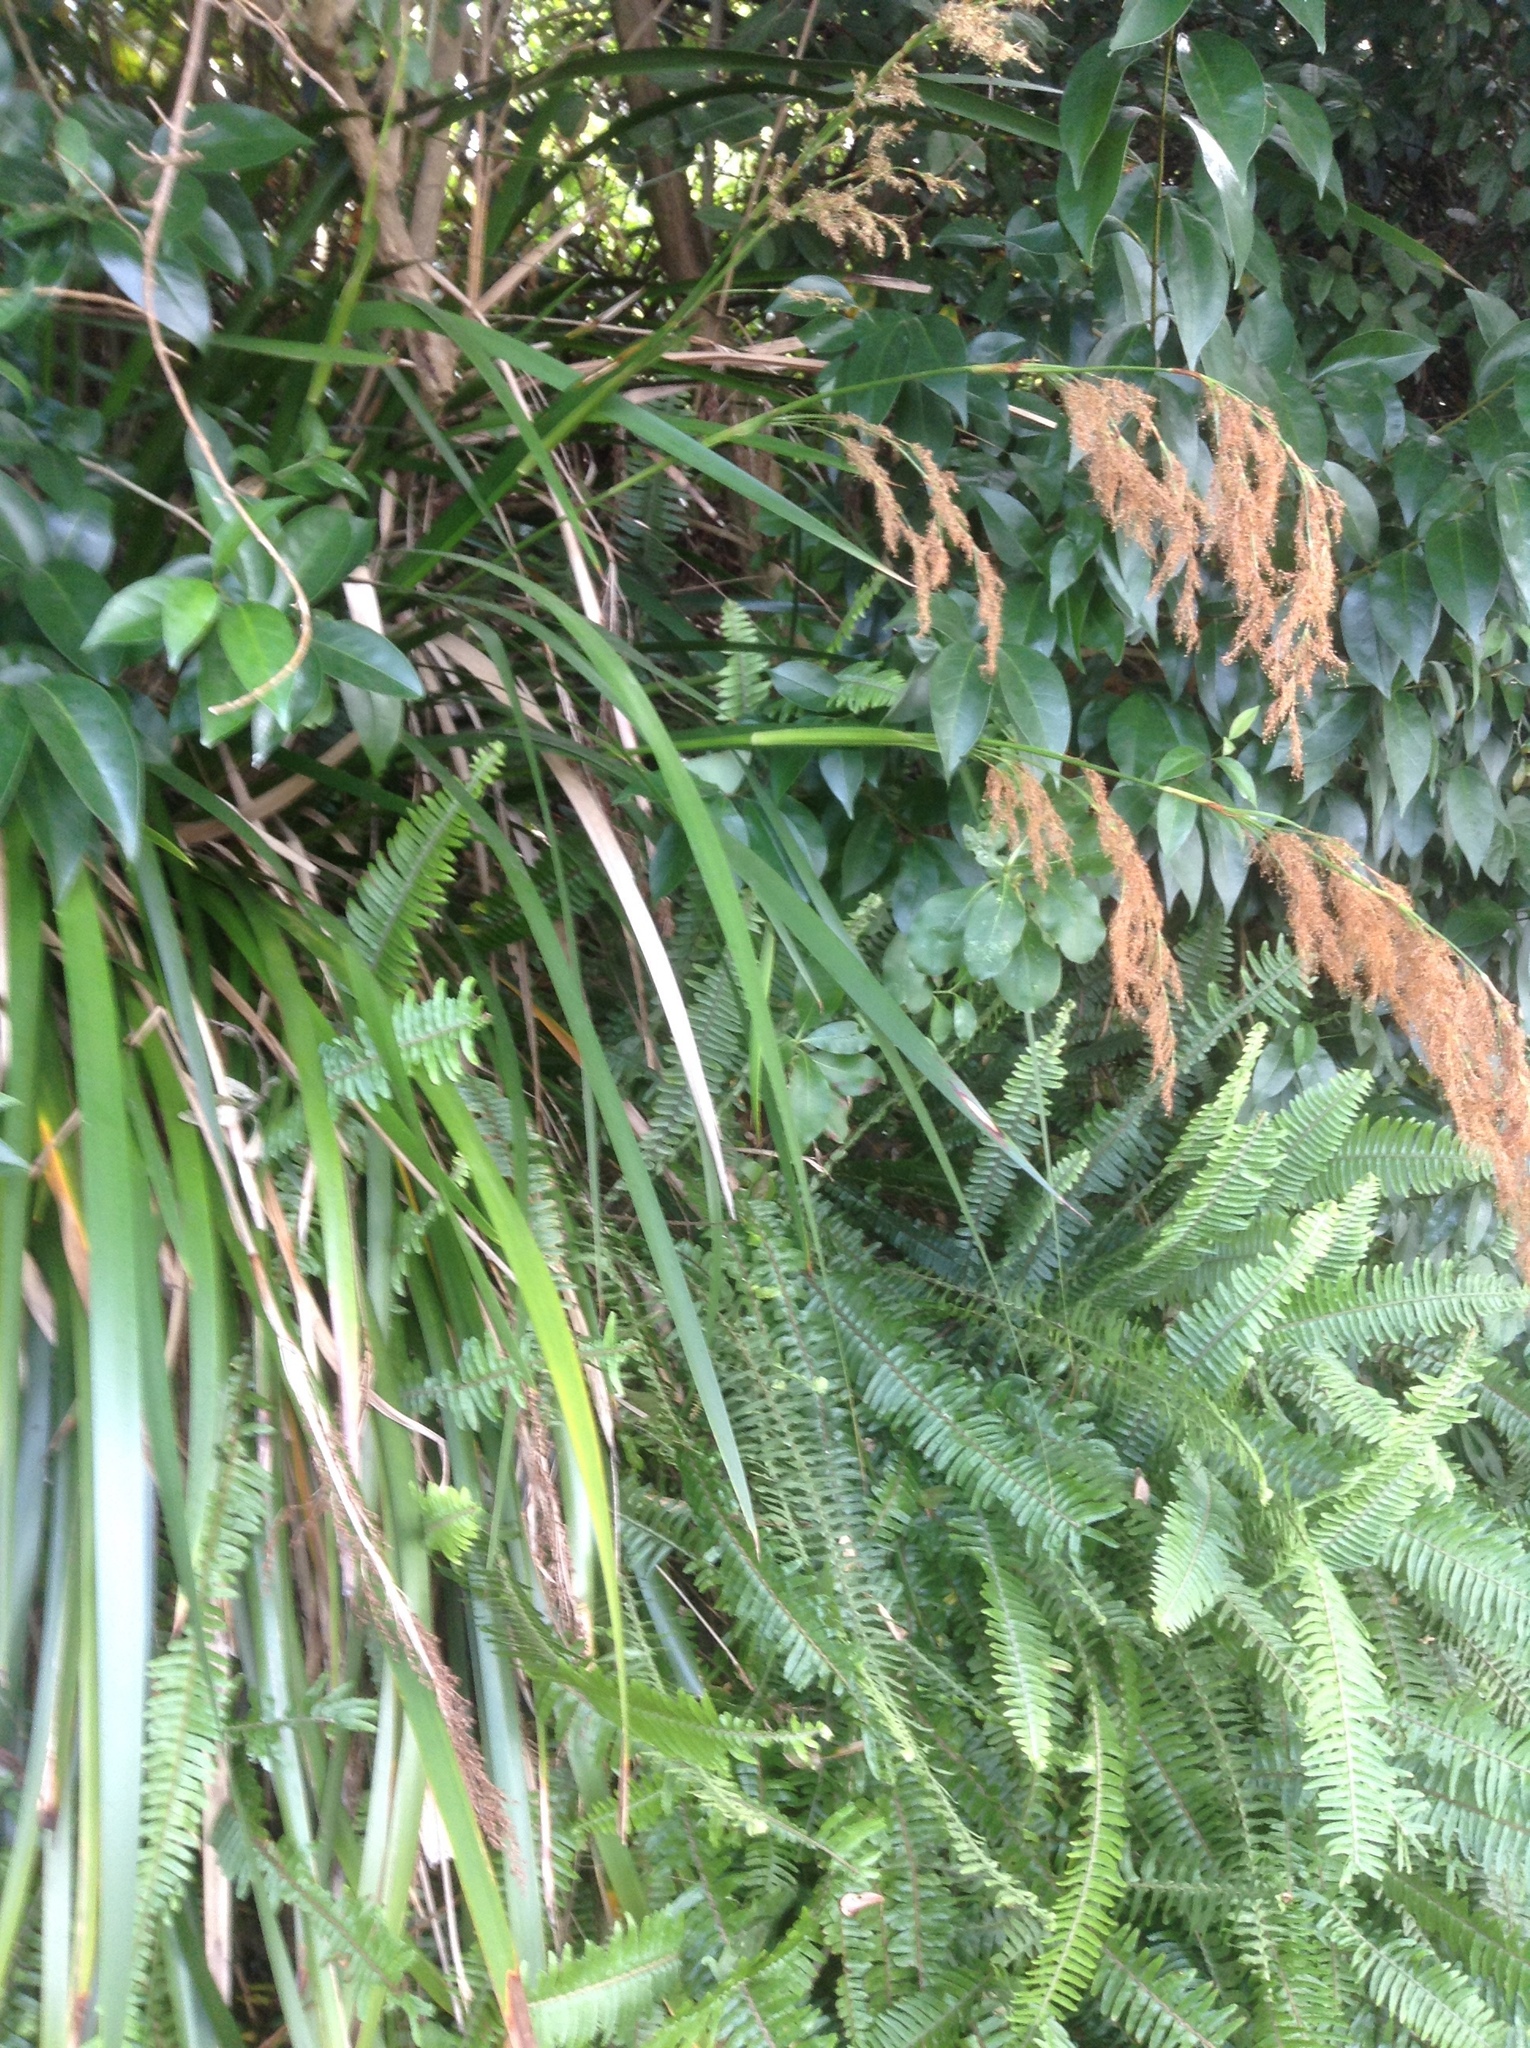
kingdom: Plantae
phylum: Tracheophyta
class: Liliopsida
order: Poales
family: Cyperaceae
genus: Machaerina
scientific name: Machaerina sinclairii
